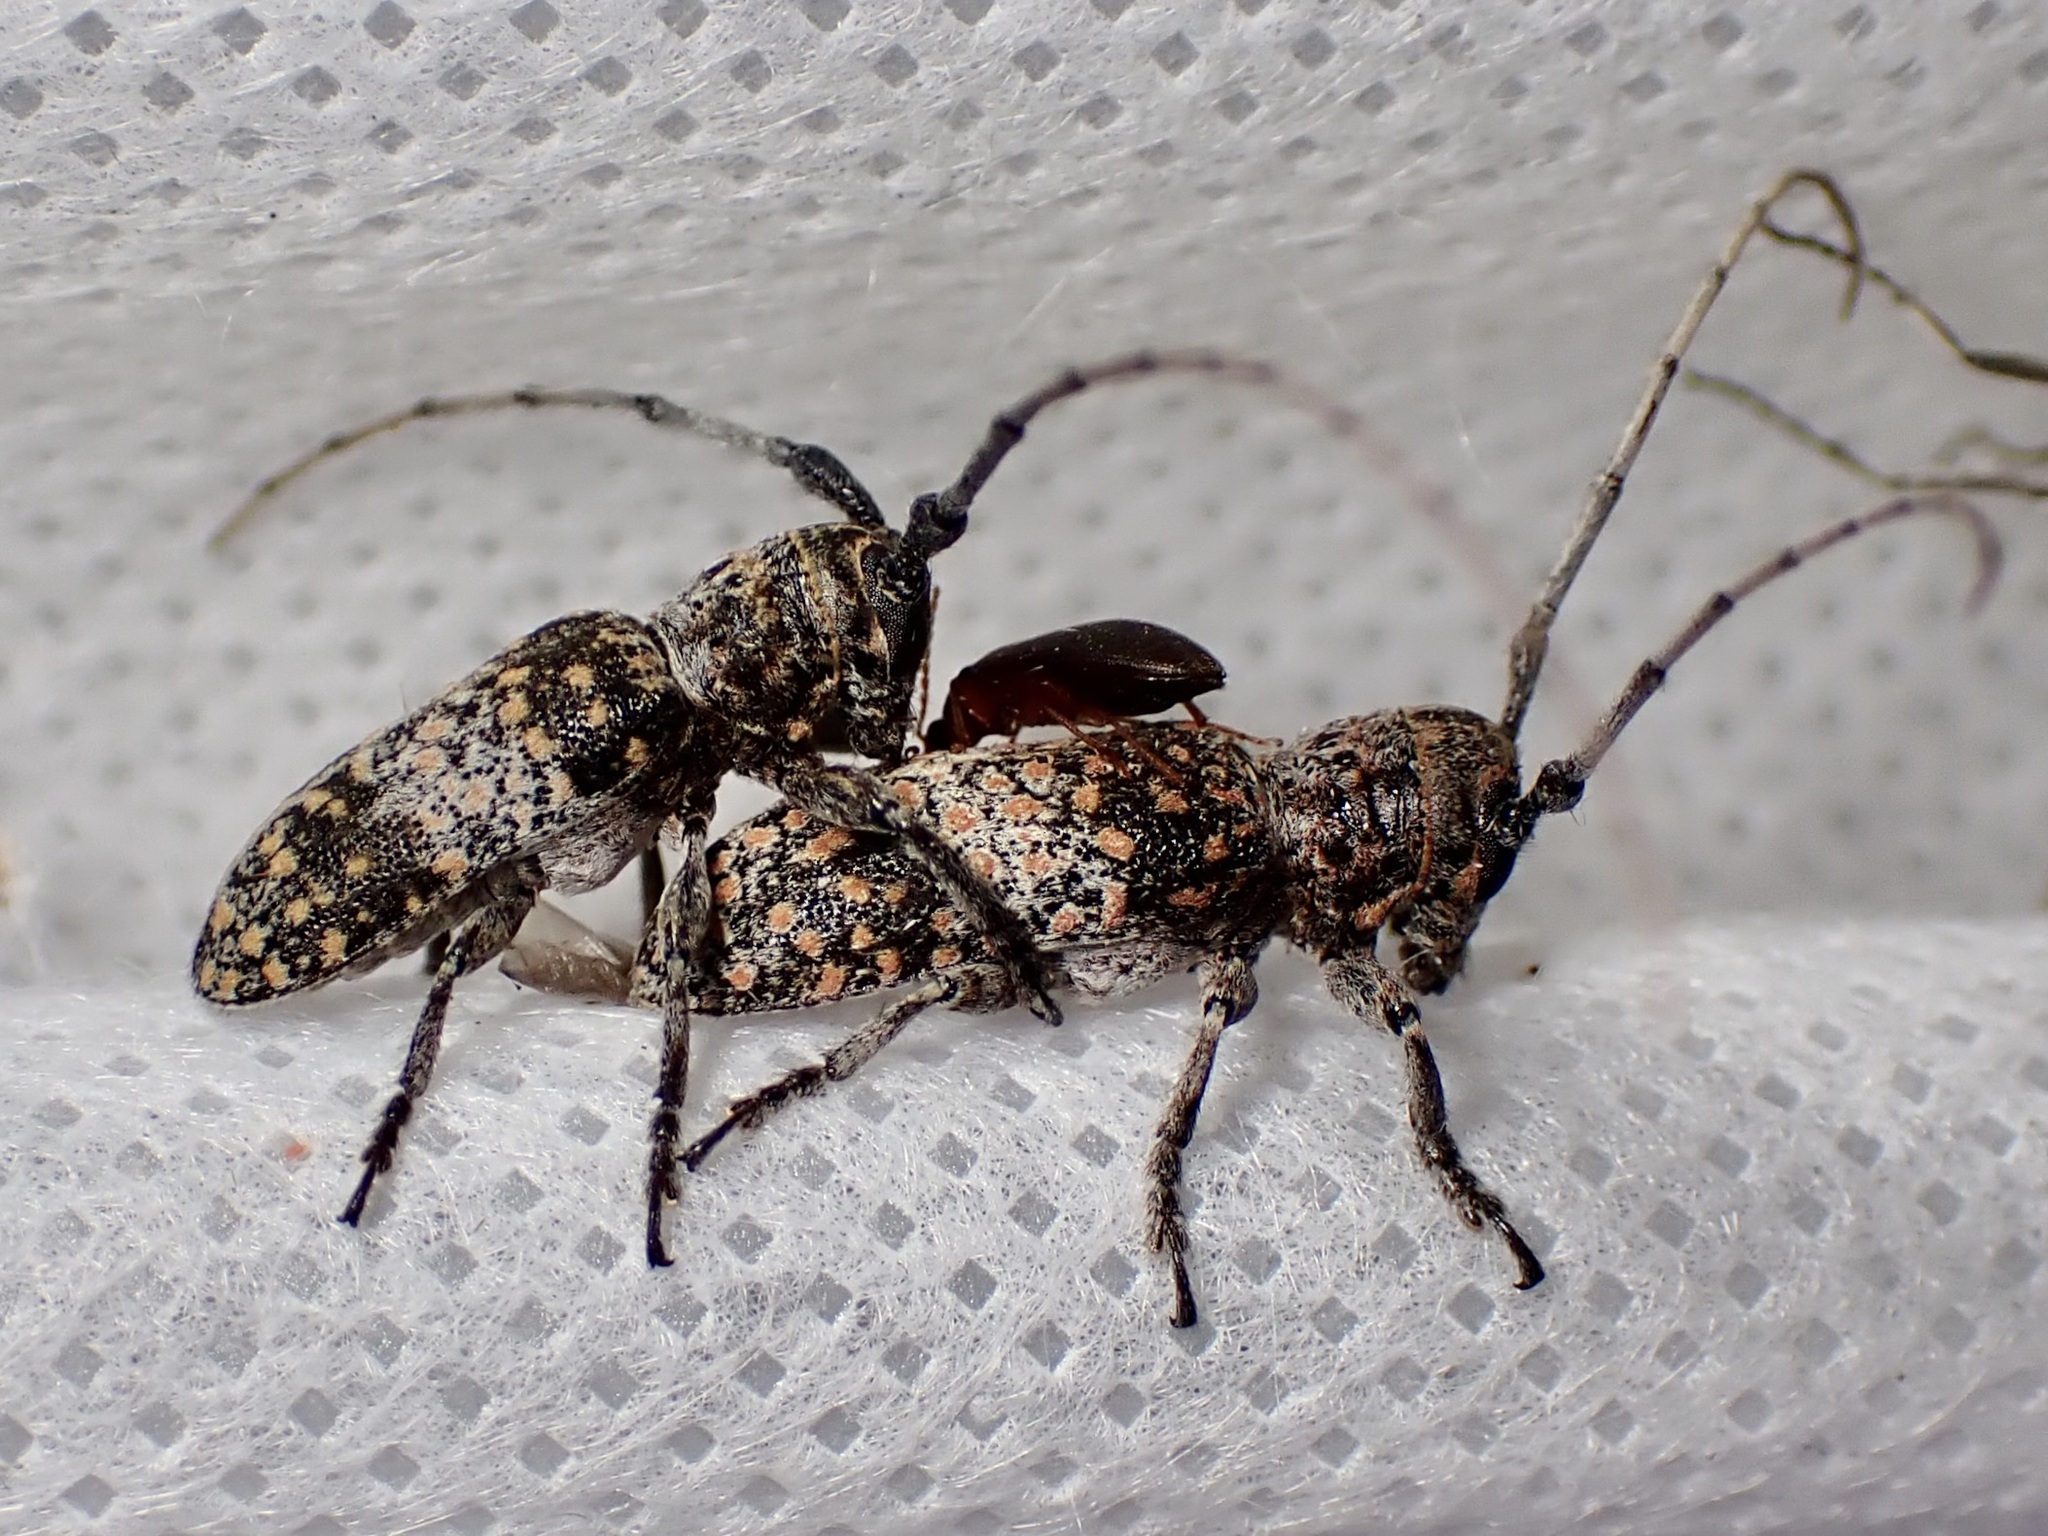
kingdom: Animalia
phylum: Arthropoda
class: Insecta
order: Coleoptera
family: Cerambycidae
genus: Oncideres
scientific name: Oncideres rhodosticta
